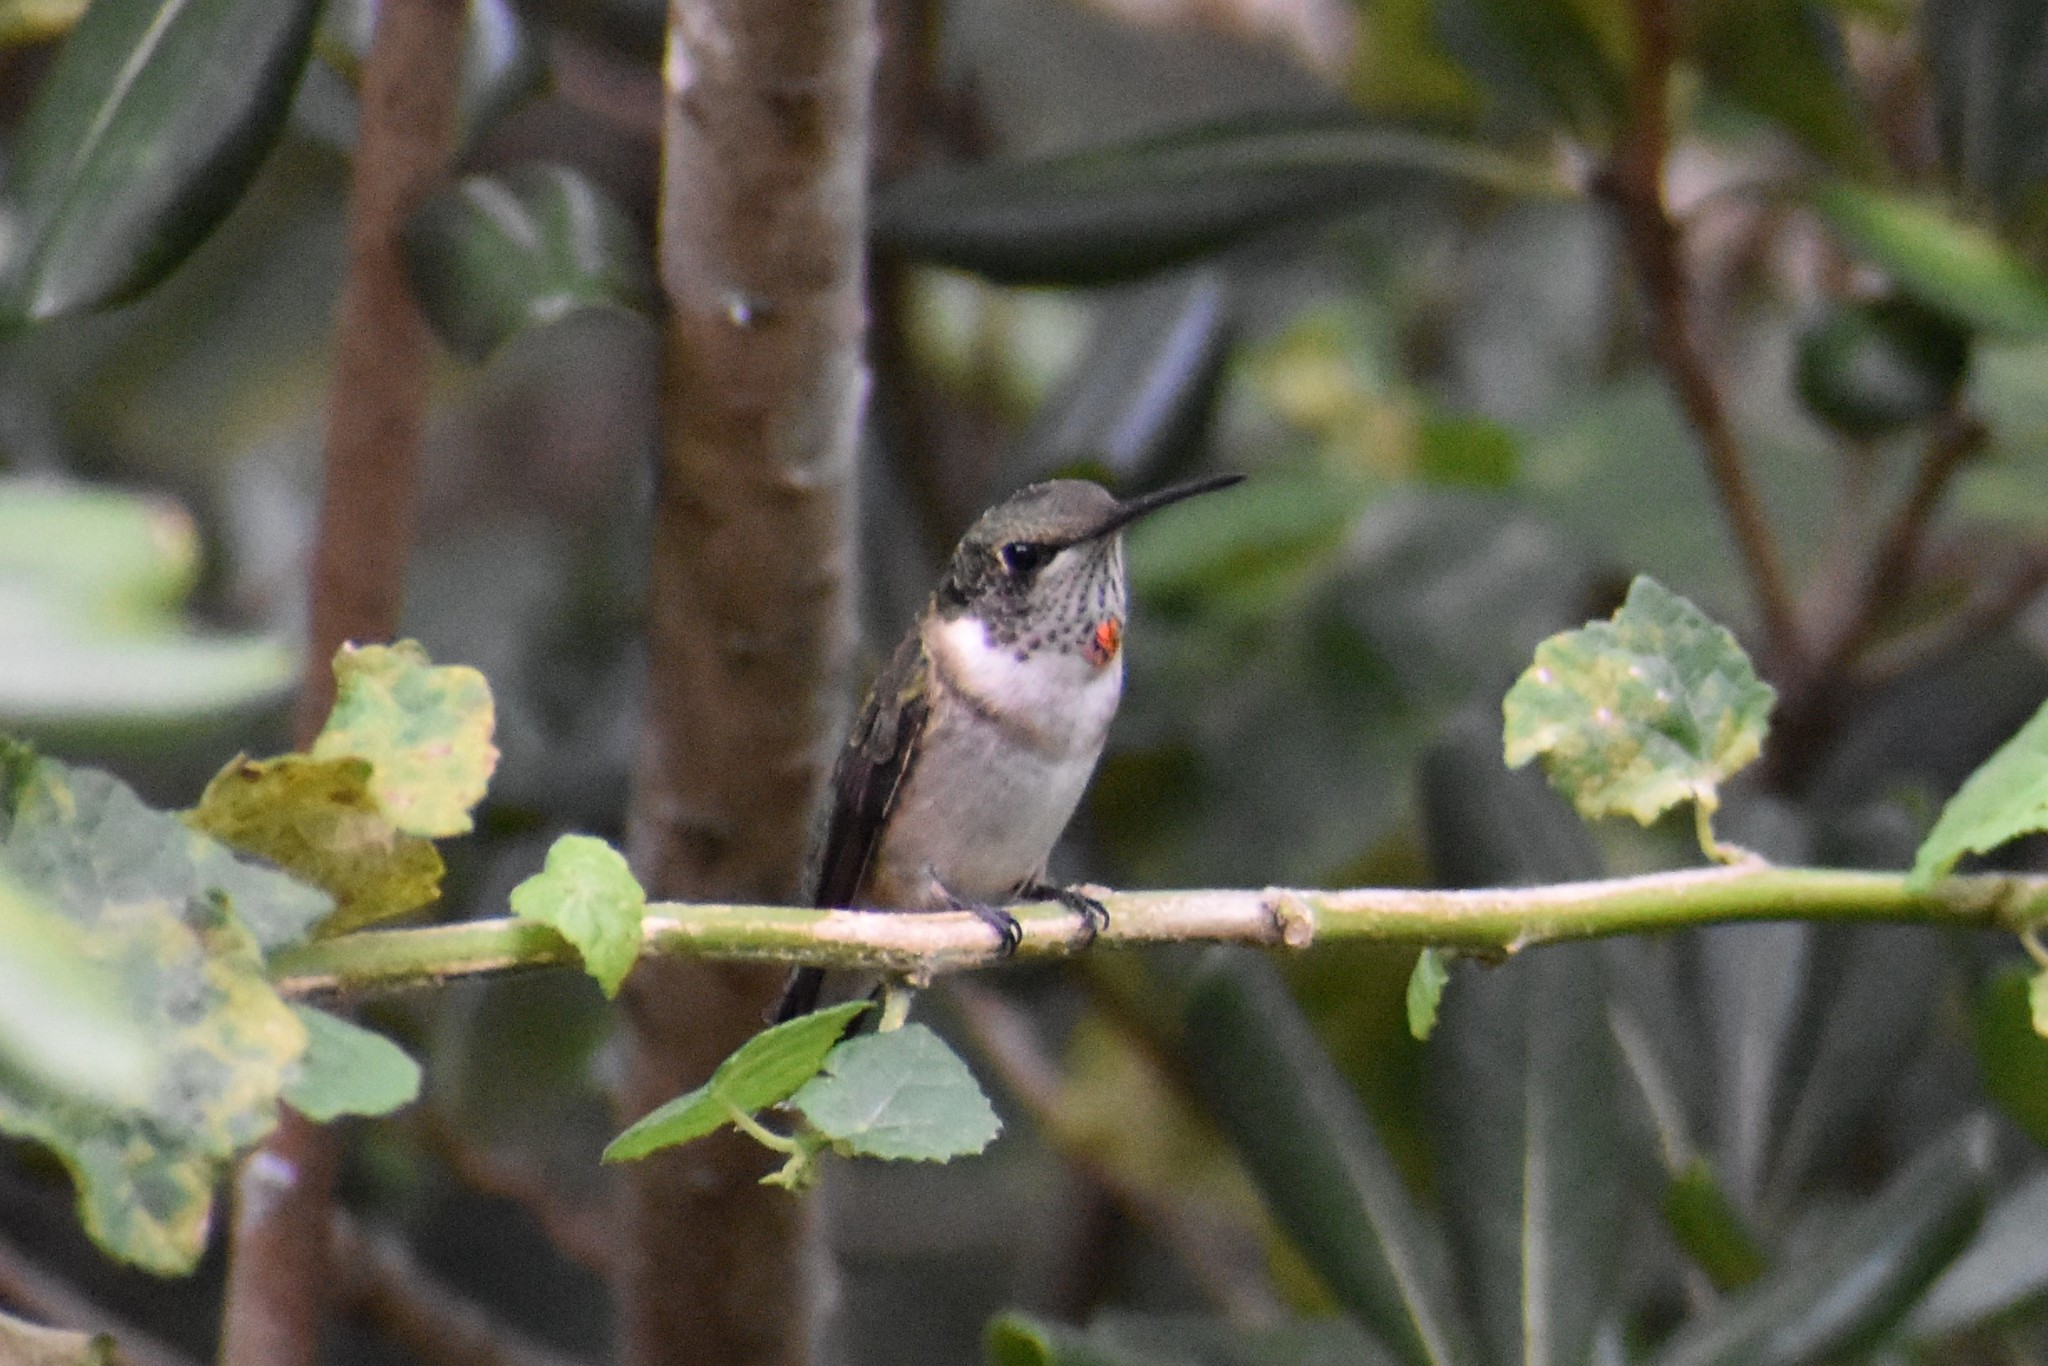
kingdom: Animalia
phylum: Chordata
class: Aves
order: Apodiformes
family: Trochilidae
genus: Archilochus
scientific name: Archilochus colubris
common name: Ruby-throated hummingbird
